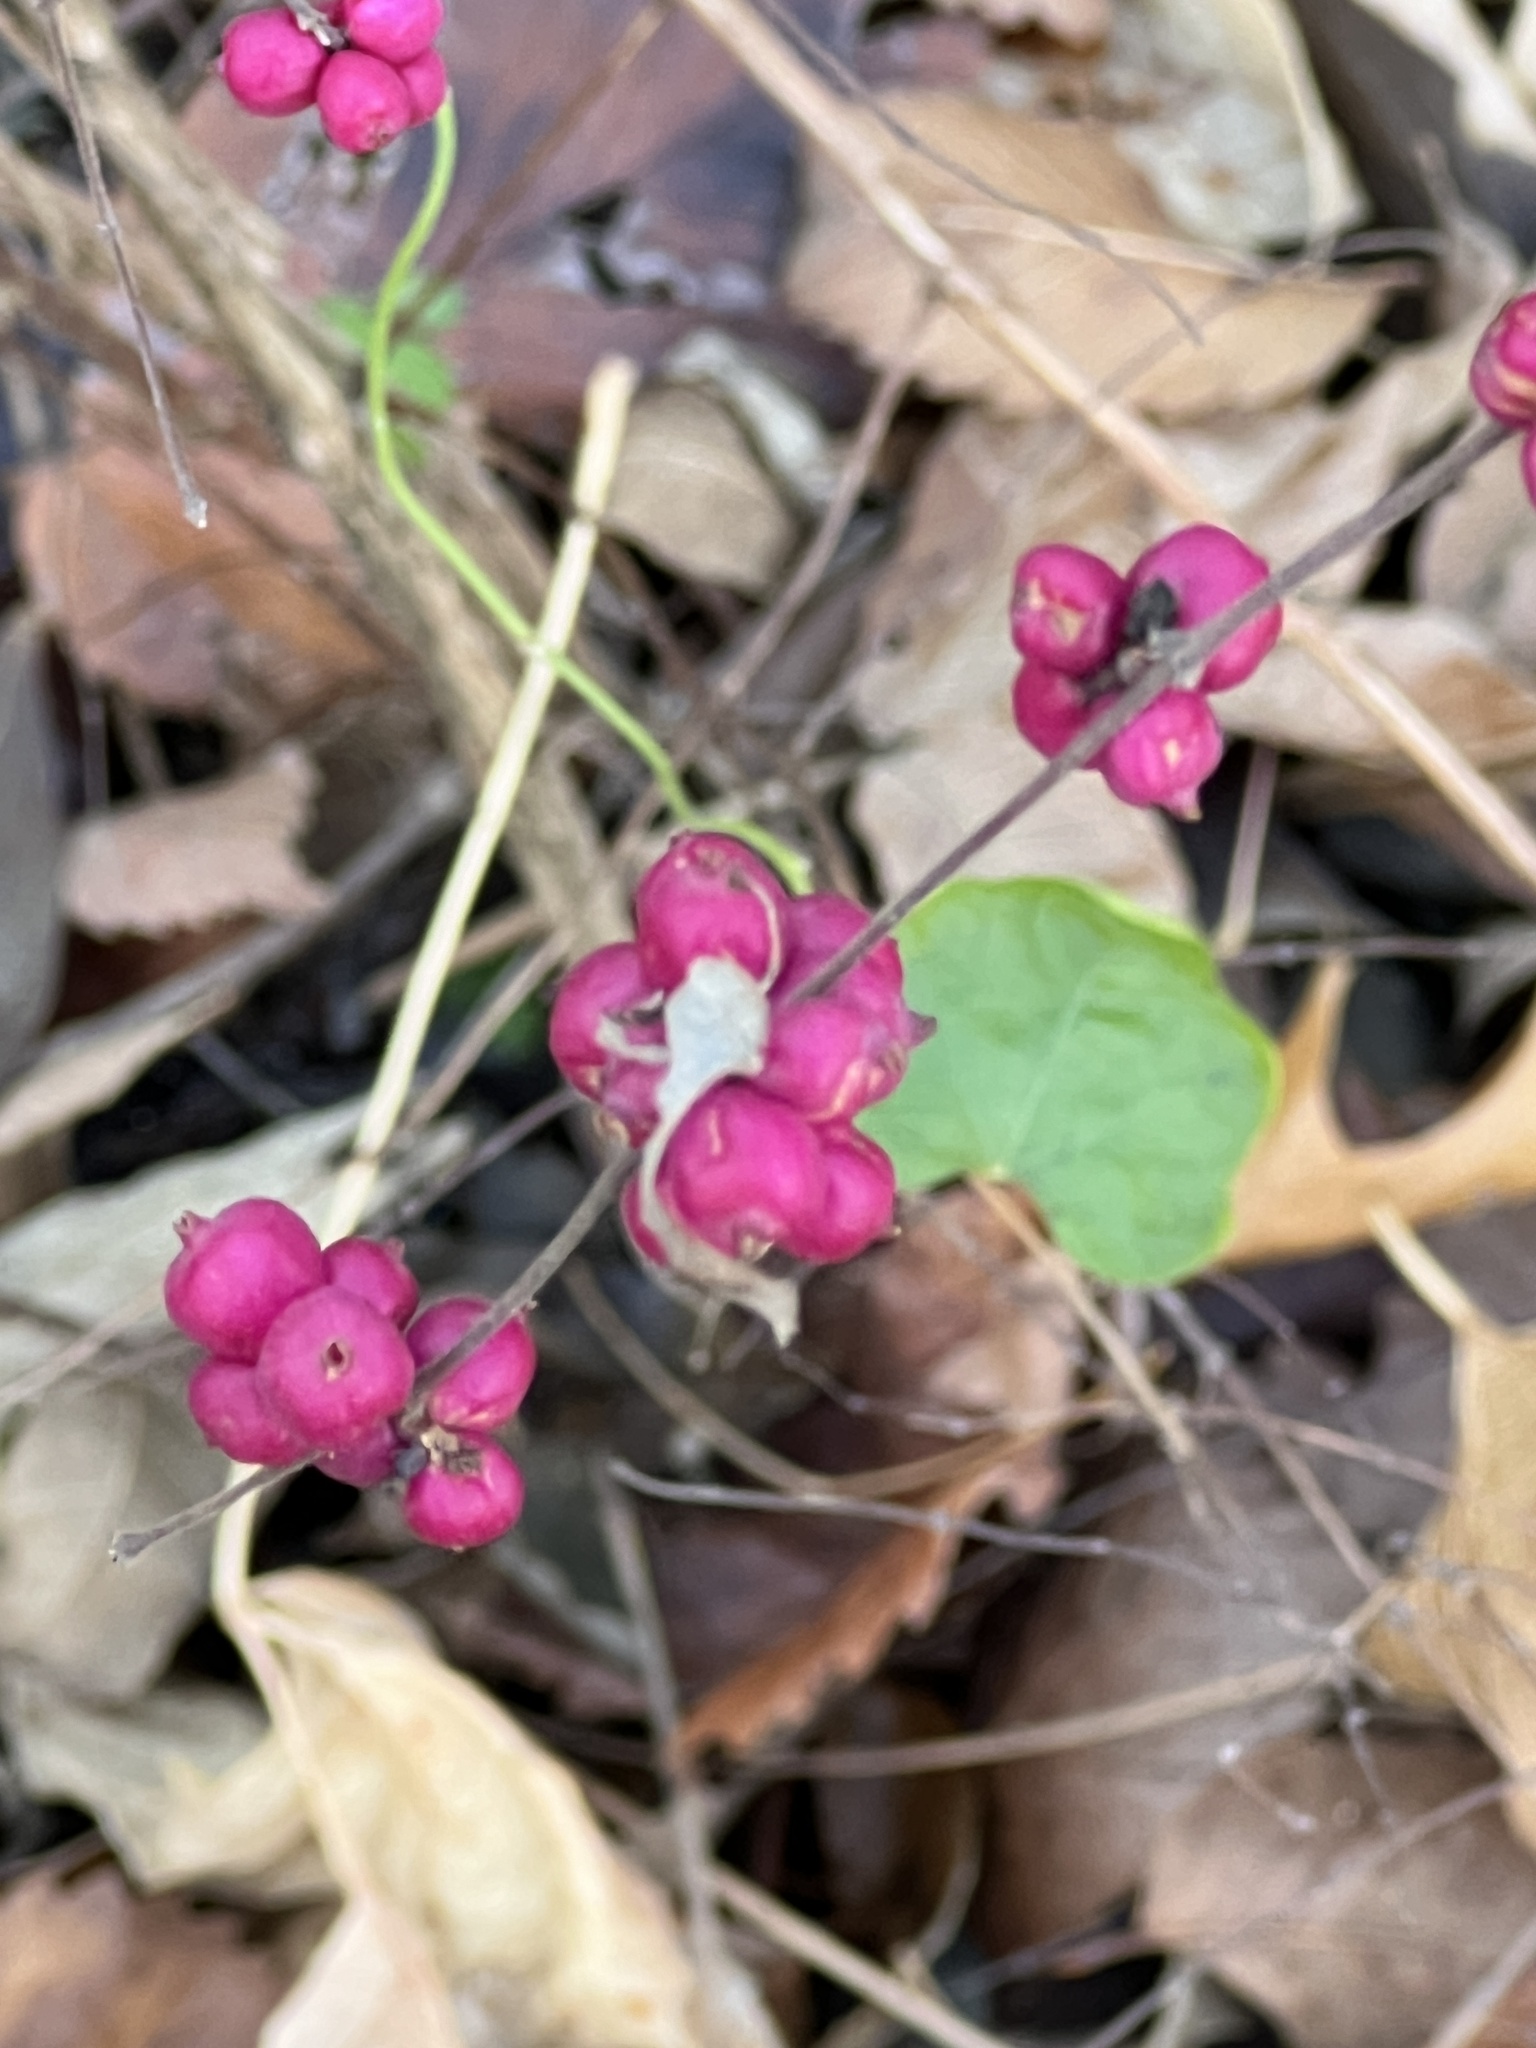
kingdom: Plantae
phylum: Tracheophyta
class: Magnoliopsida
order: Dipsacales
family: Caprifoliaceae
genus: Symphoricarpos
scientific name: Symphoricarpos orbiculatus
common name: Coralberry
